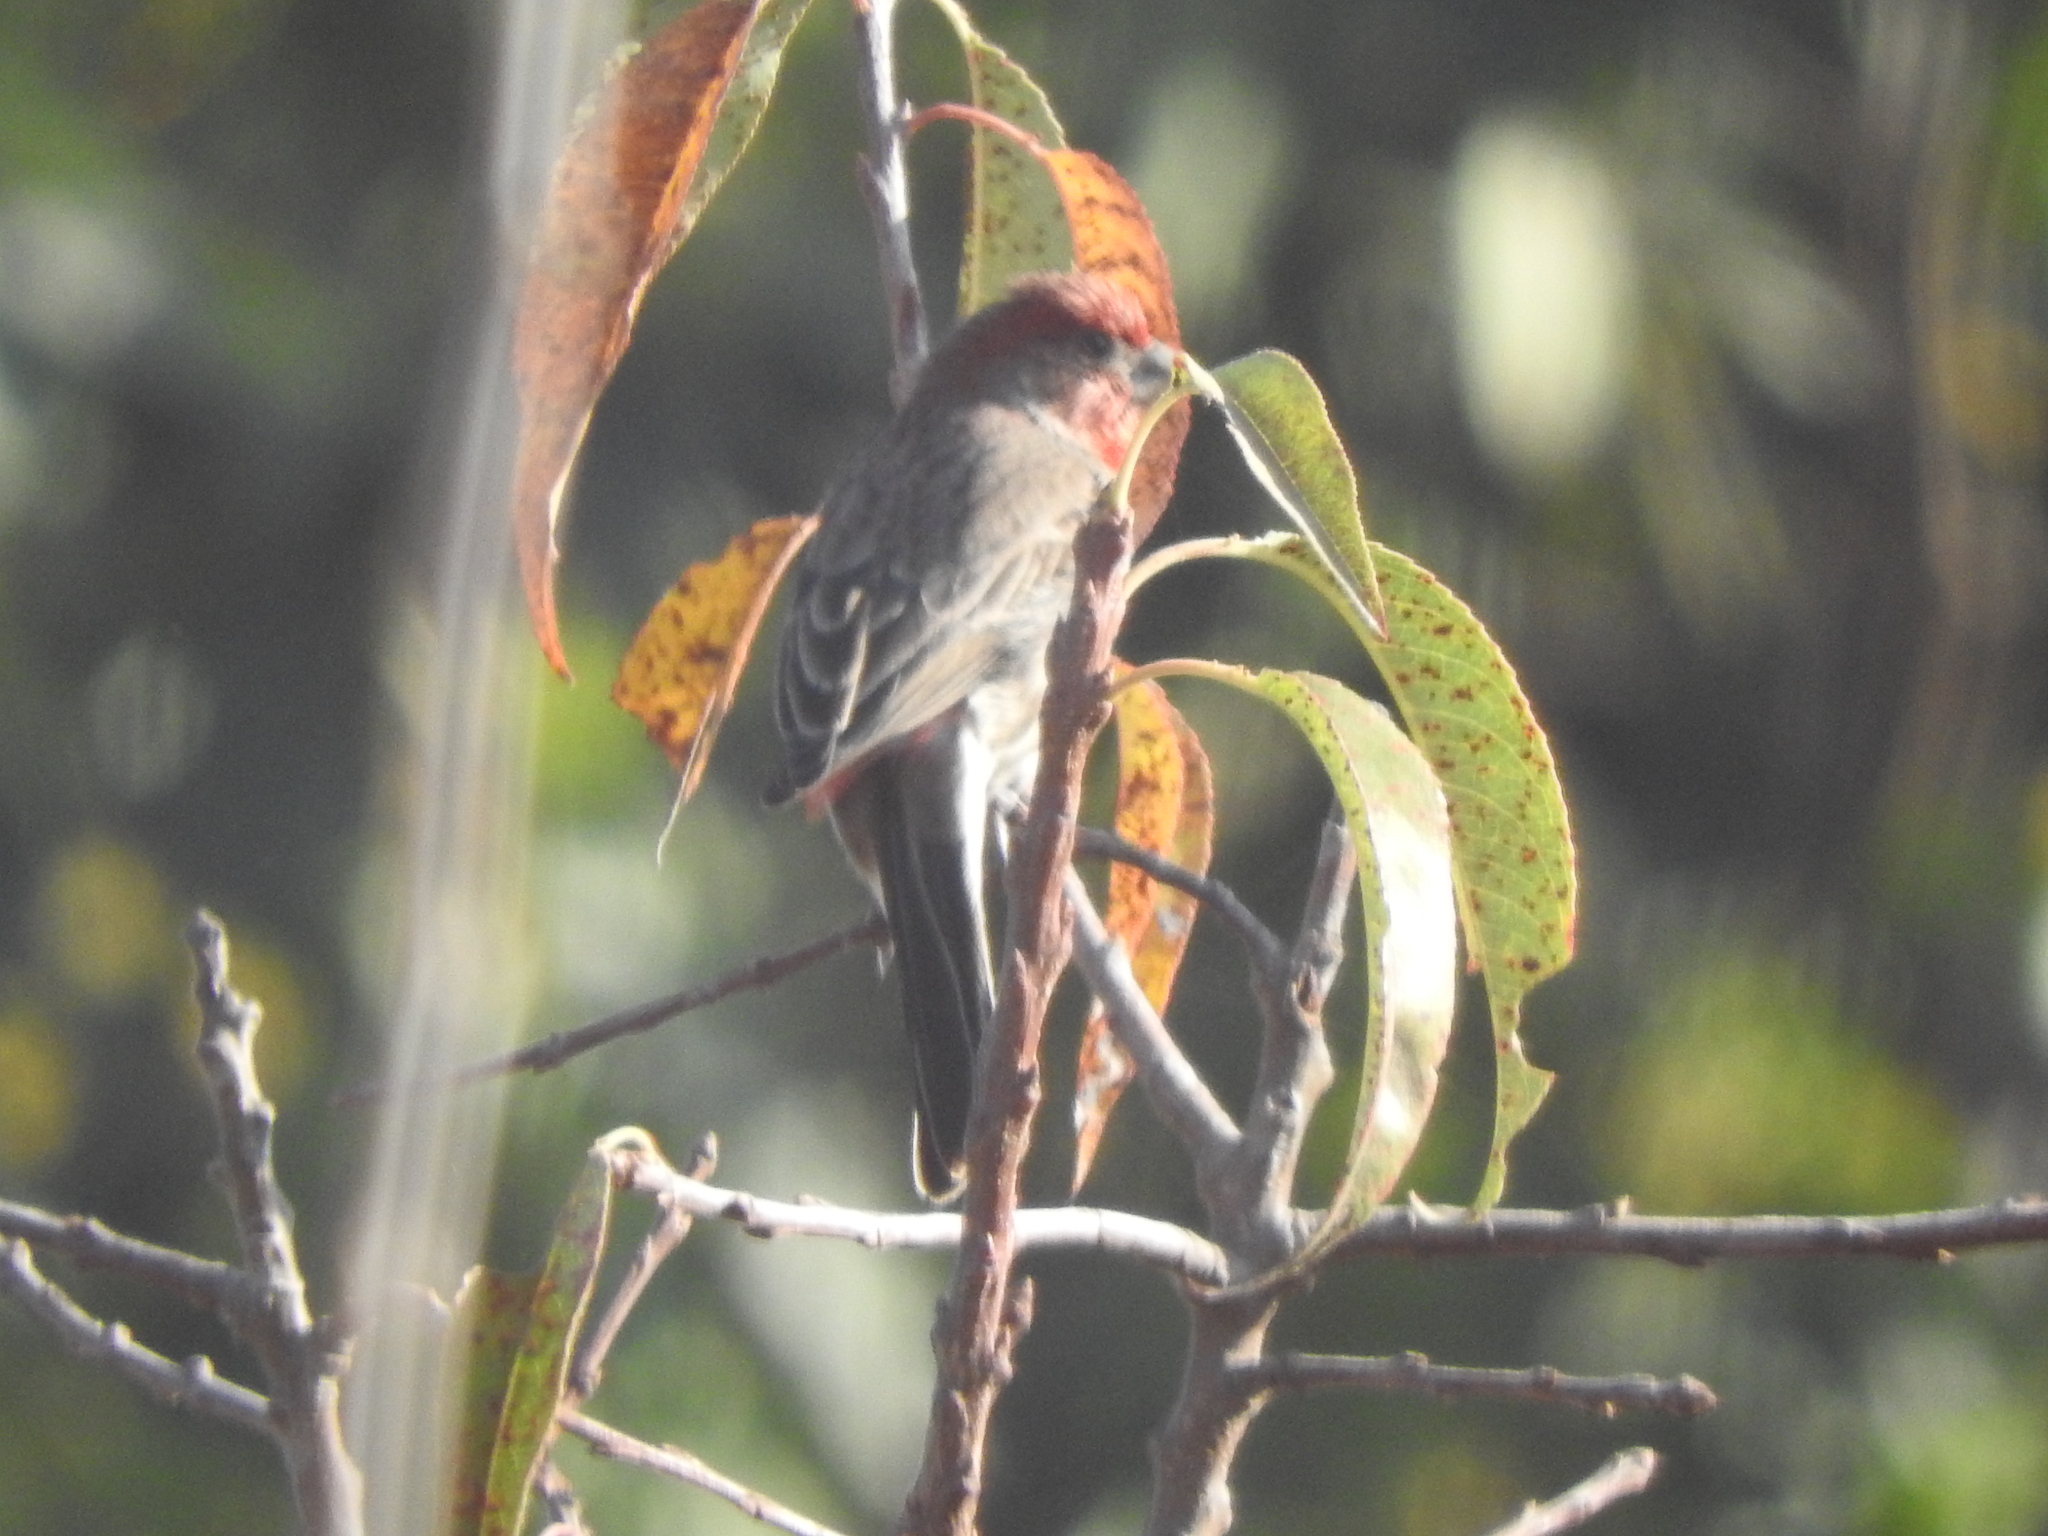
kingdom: Animalia
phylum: Chordata
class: Aves
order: Passeriformes
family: Fringillidae
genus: Haemorhous
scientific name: Haemorhous mexicanus
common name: House finch
